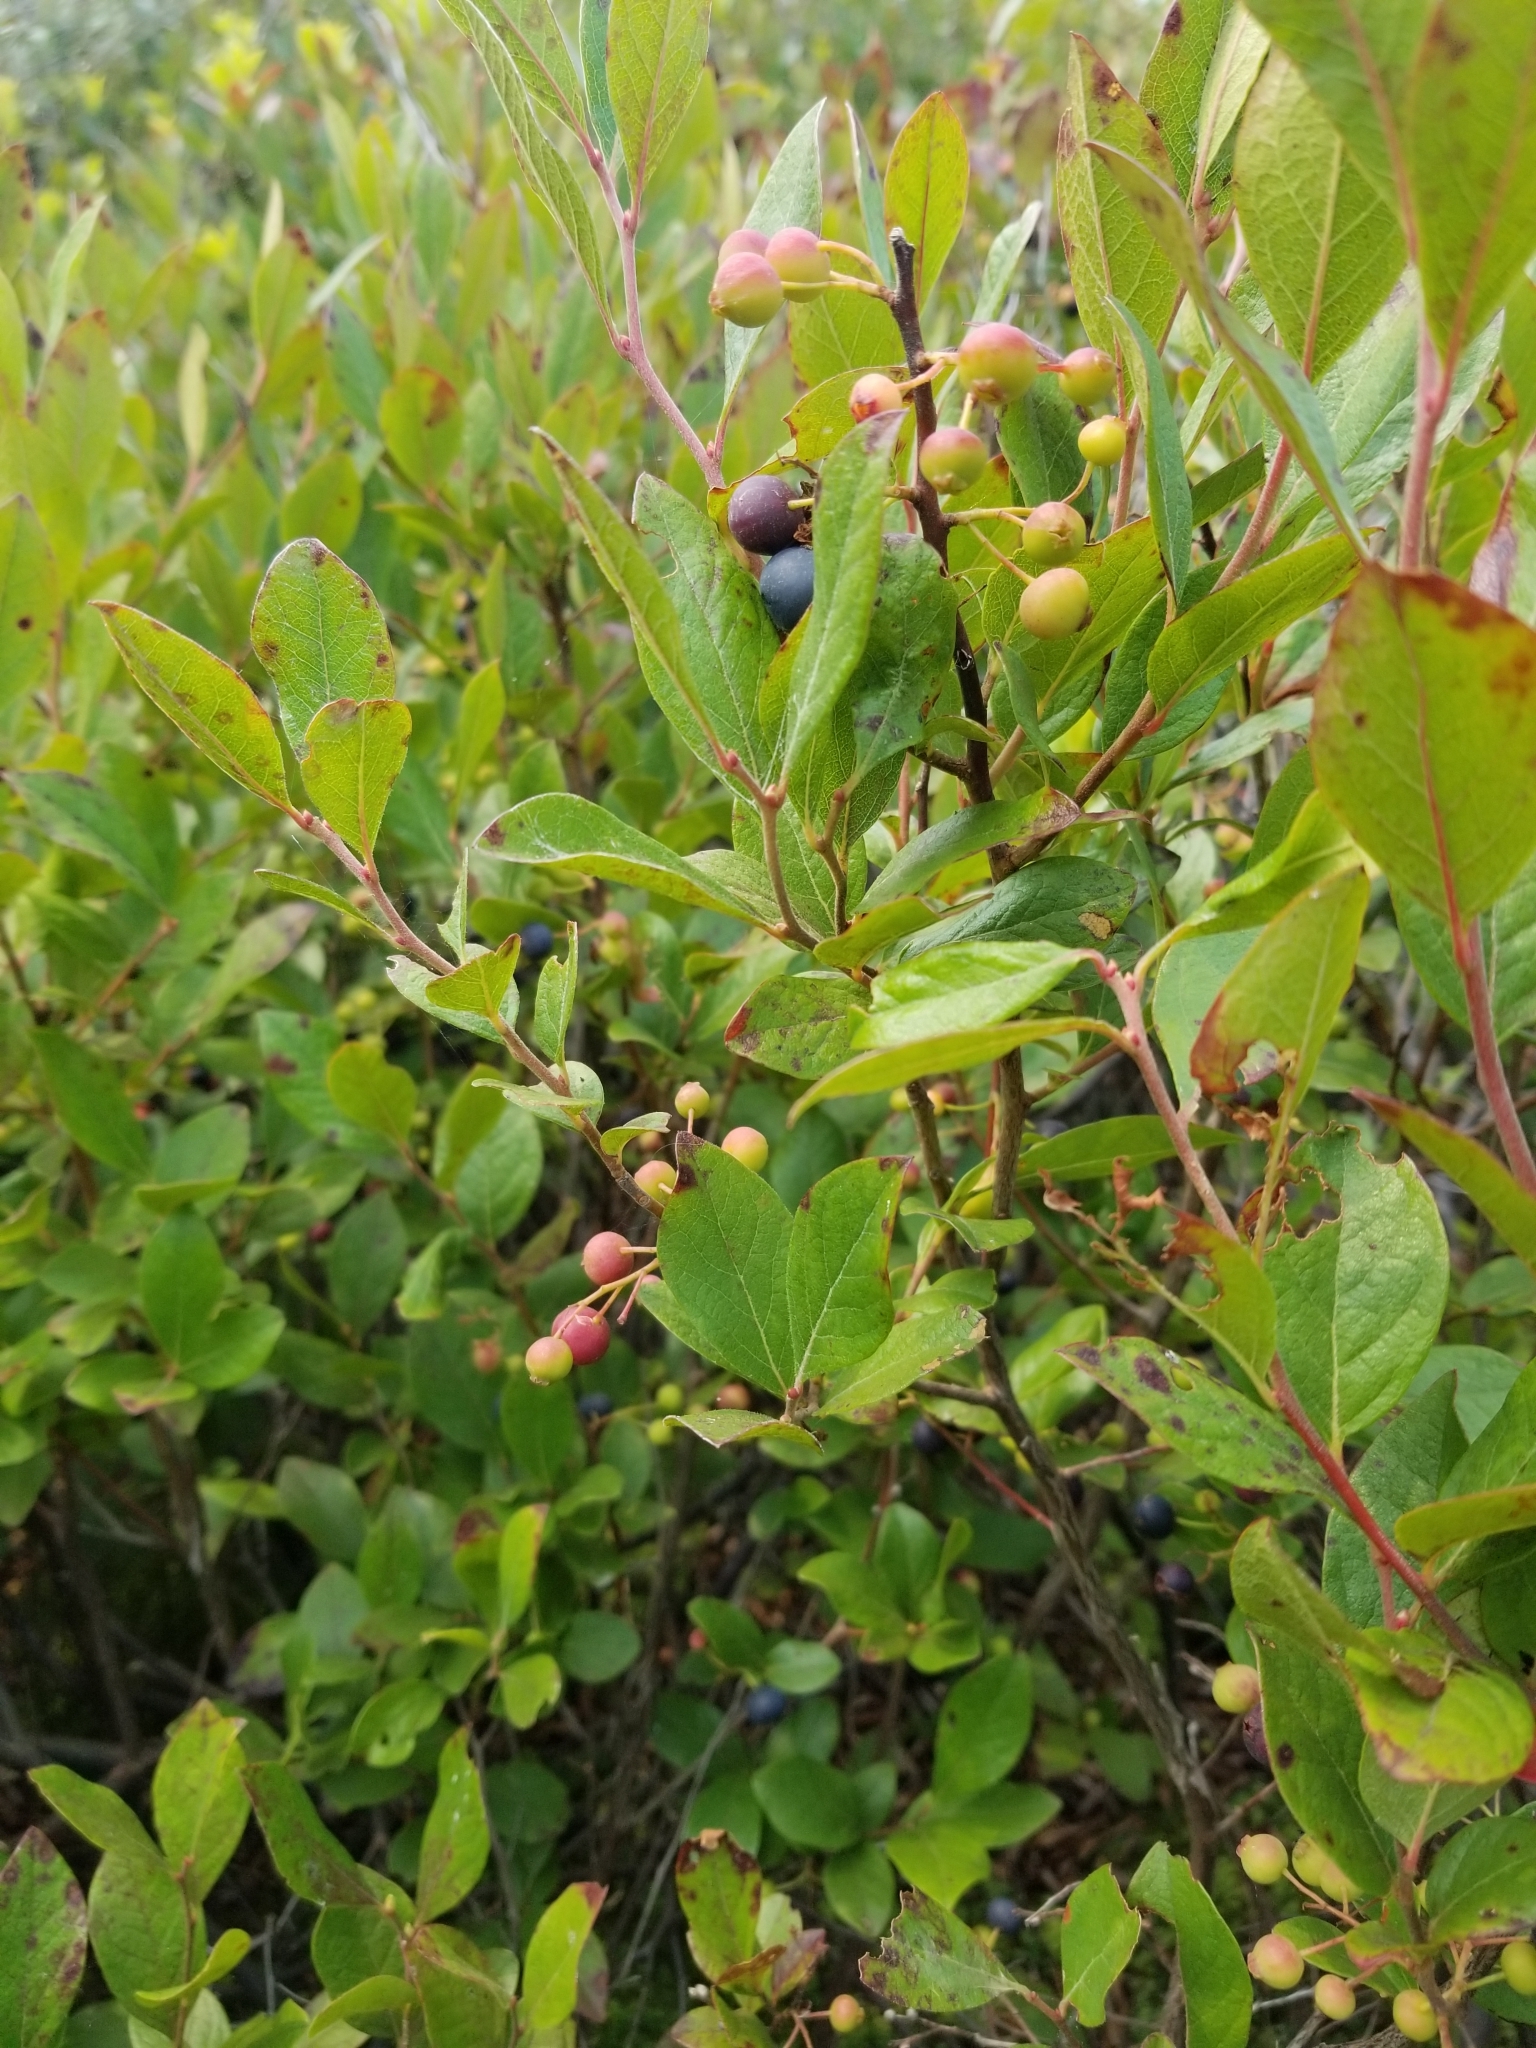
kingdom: Plantae
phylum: Tracheophyta
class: Magnoliopsida
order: Ericales
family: Ericaceae
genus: Gaylussacia
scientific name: Gaylussacia baccata
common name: Black huckleberry
